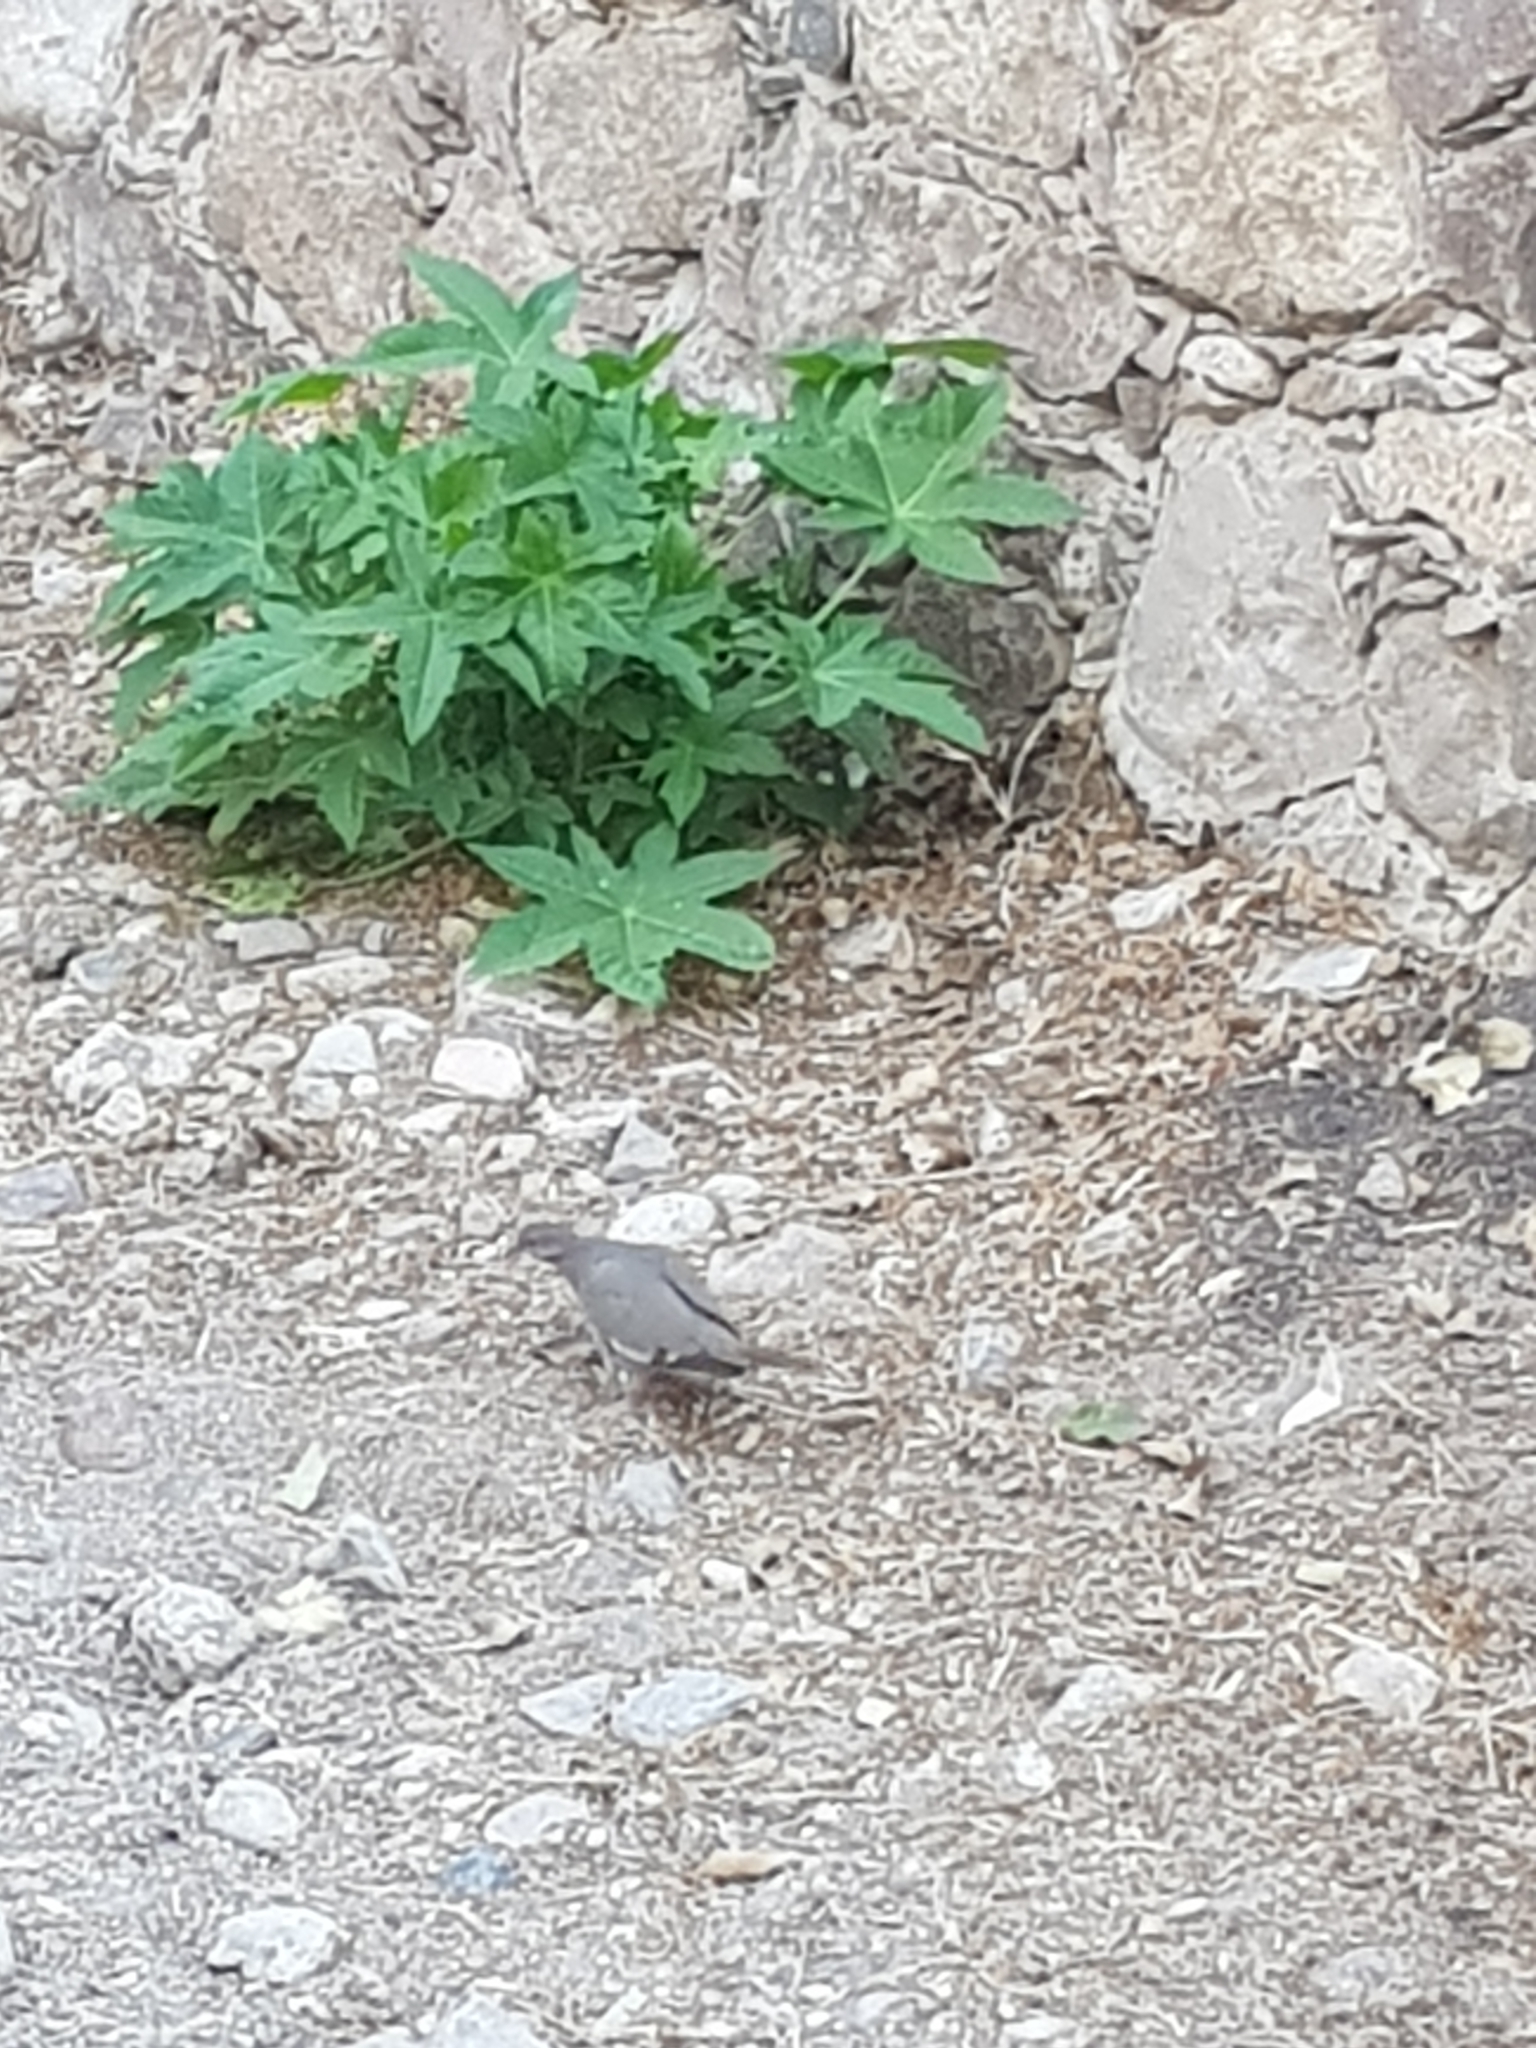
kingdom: Animalia
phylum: Chordata
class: Aves
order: Columbiformes
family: Columbidae
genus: Zenaida
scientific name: Zenaida asiatica
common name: White-winged dove
